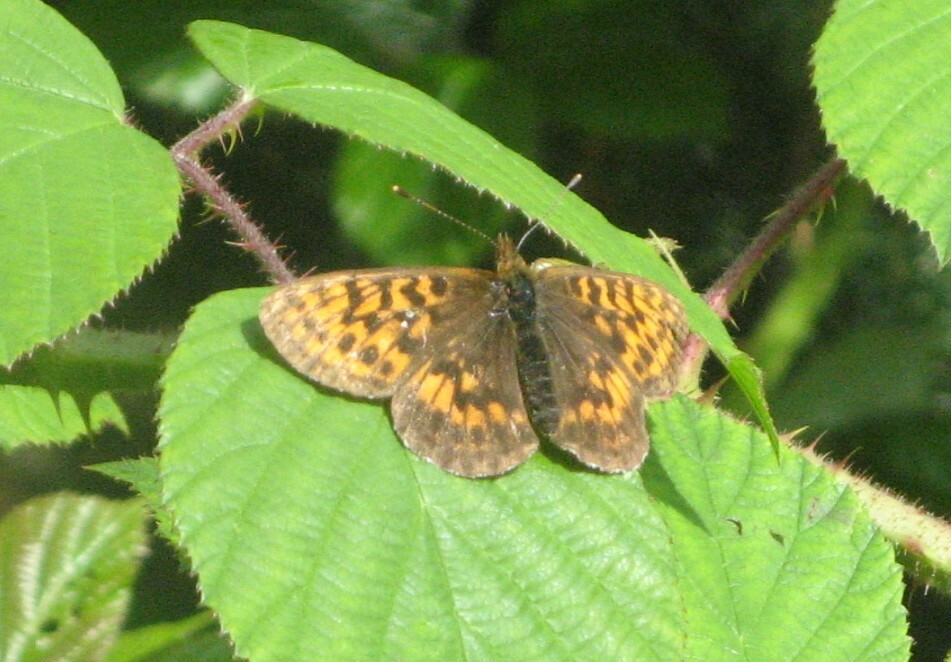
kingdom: Animalia
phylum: Arthropoda
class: Insecta
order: Lepidoptera
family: Nymphalidae
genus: Boloria
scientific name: Boloria thore
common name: Thor's fritillary
